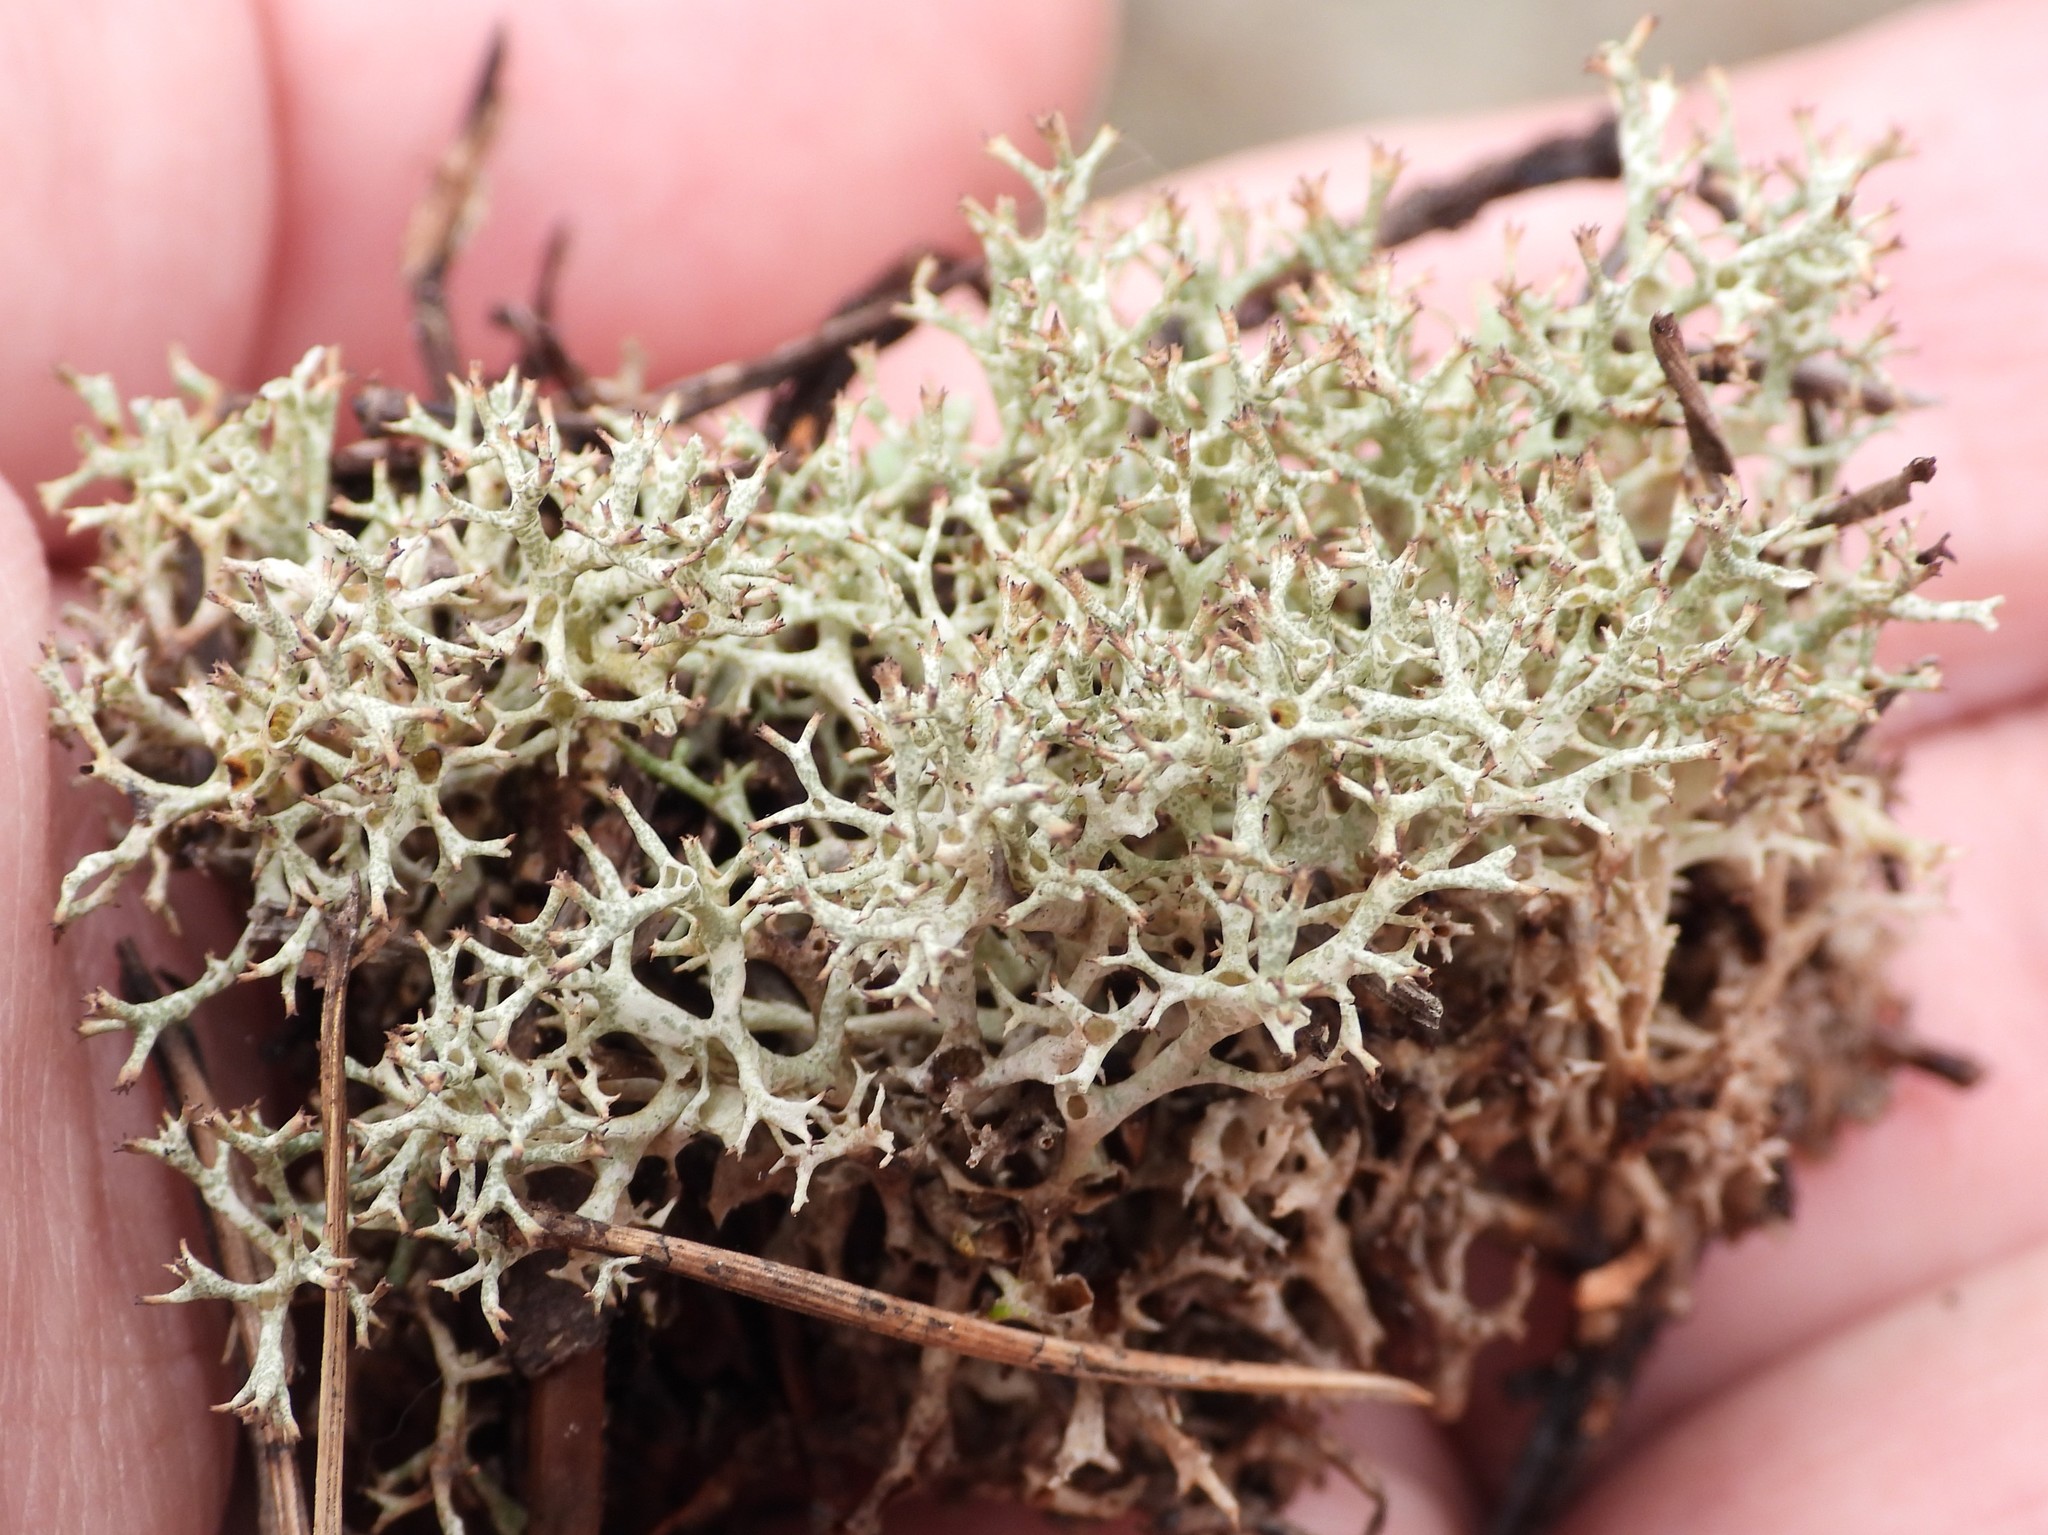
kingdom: Fungi
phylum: Ascomycota
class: Lecanoromycetes
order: Lecanorales
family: Cladoniaceae
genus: Cladonia
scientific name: Cladonia uncialis
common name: Thorn lichen
